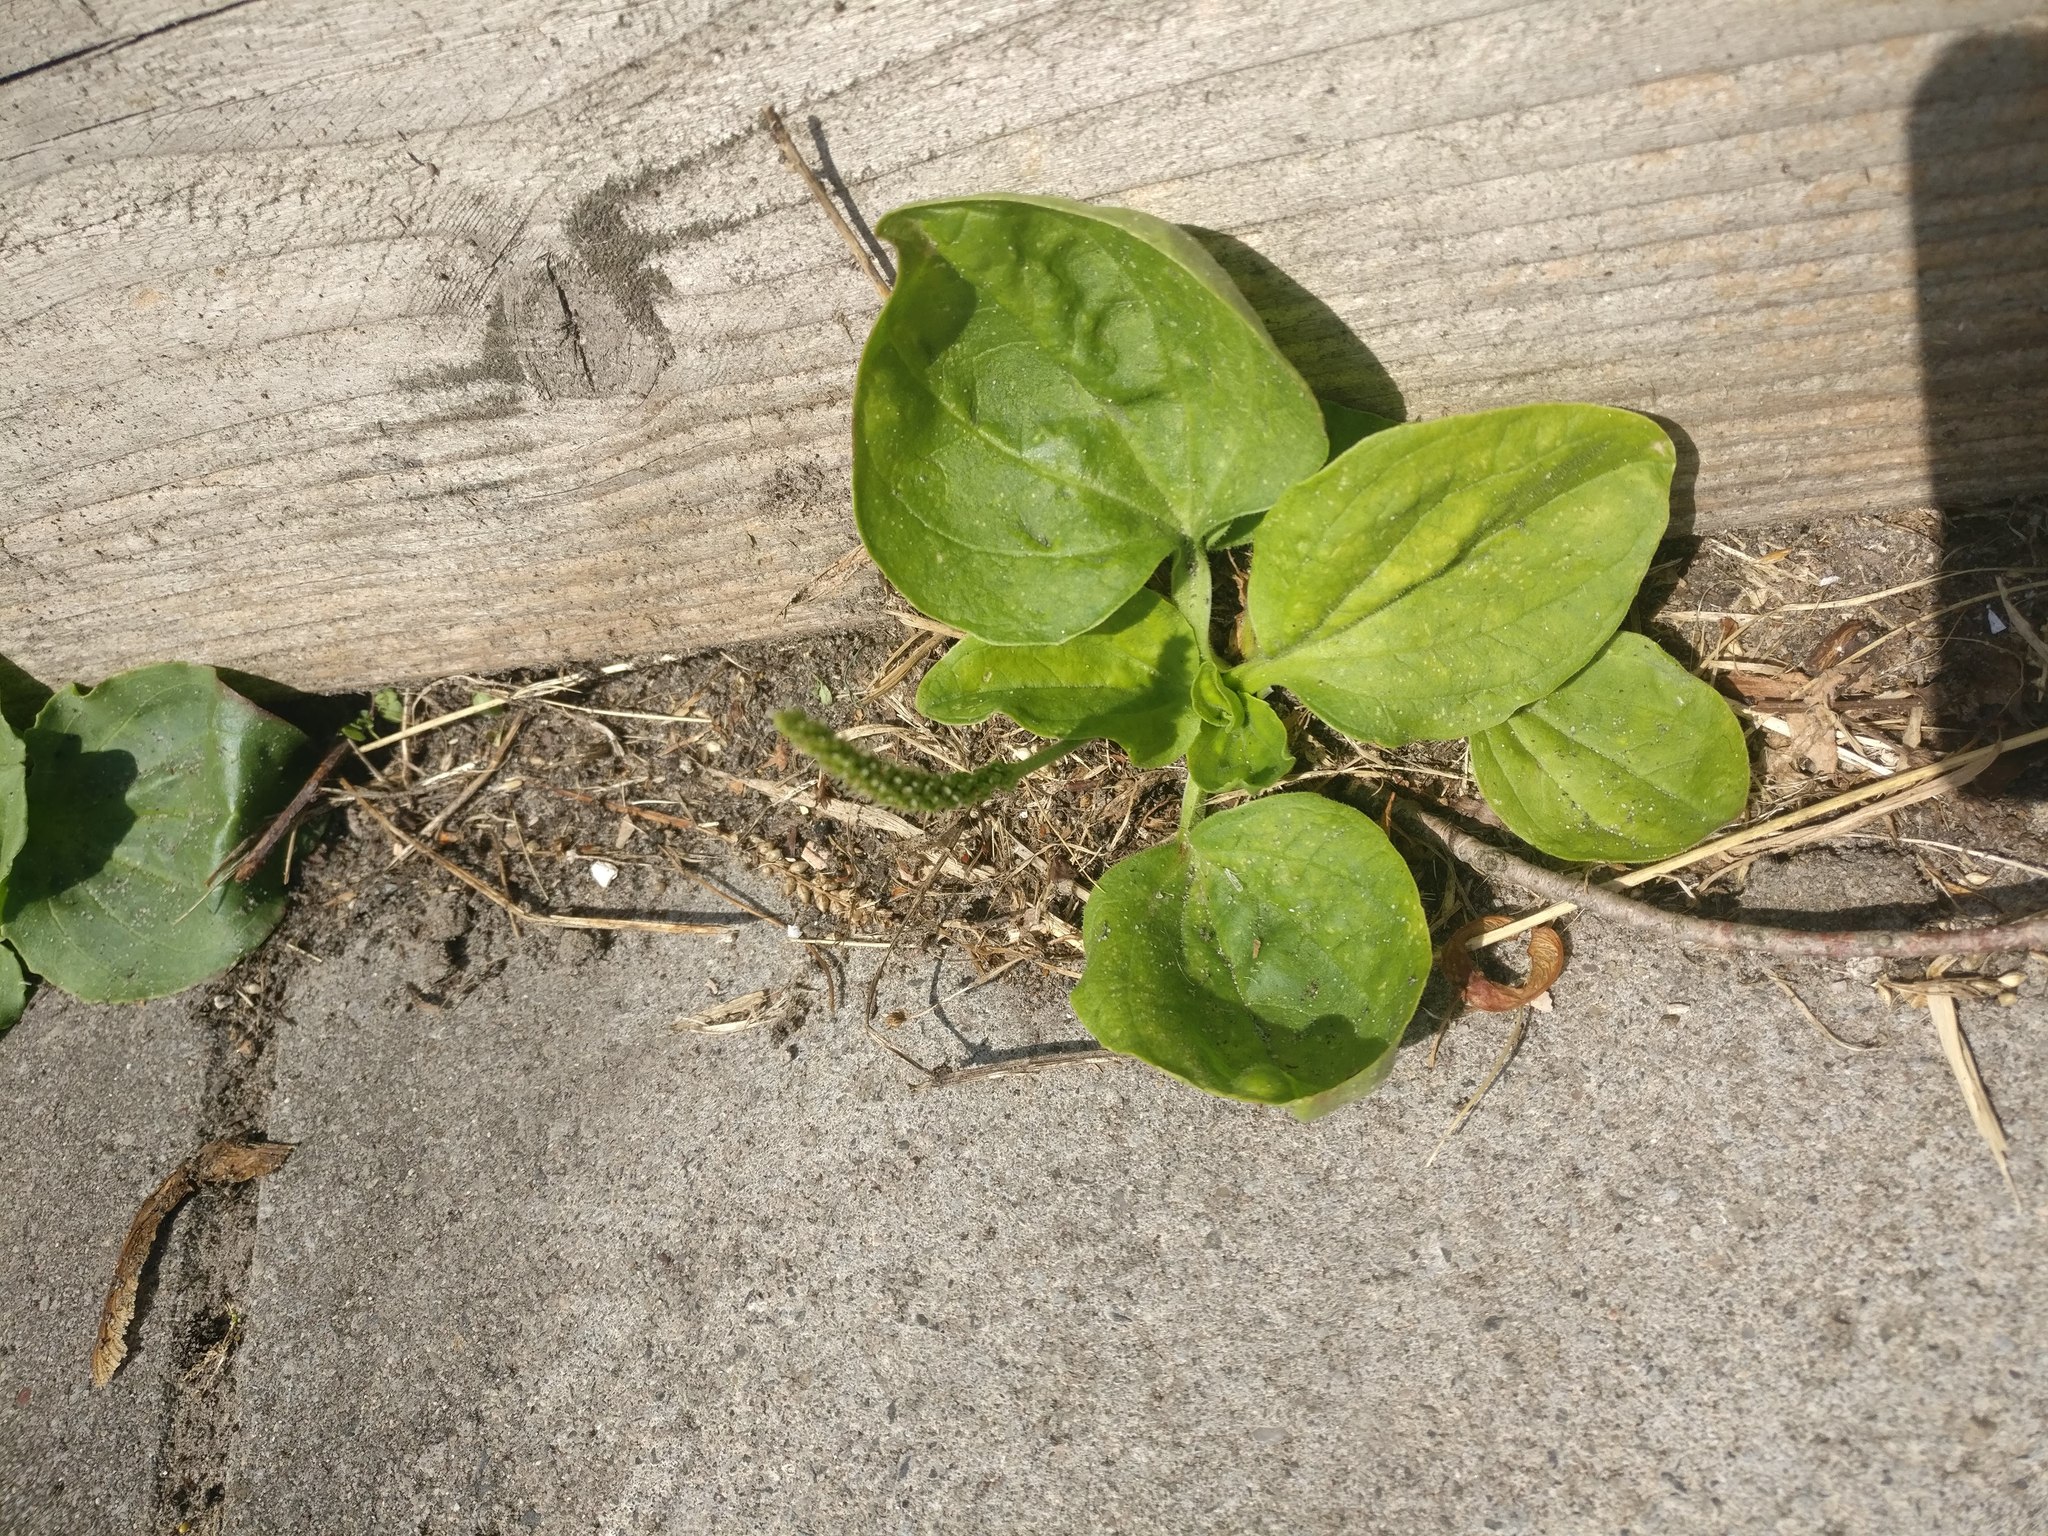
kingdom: Plantae
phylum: Tracheophyta
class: Magnoliopsida
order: Lamiales
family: Plantaginaceae
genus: Plantago
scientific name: Plantago major
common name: Common plantain
